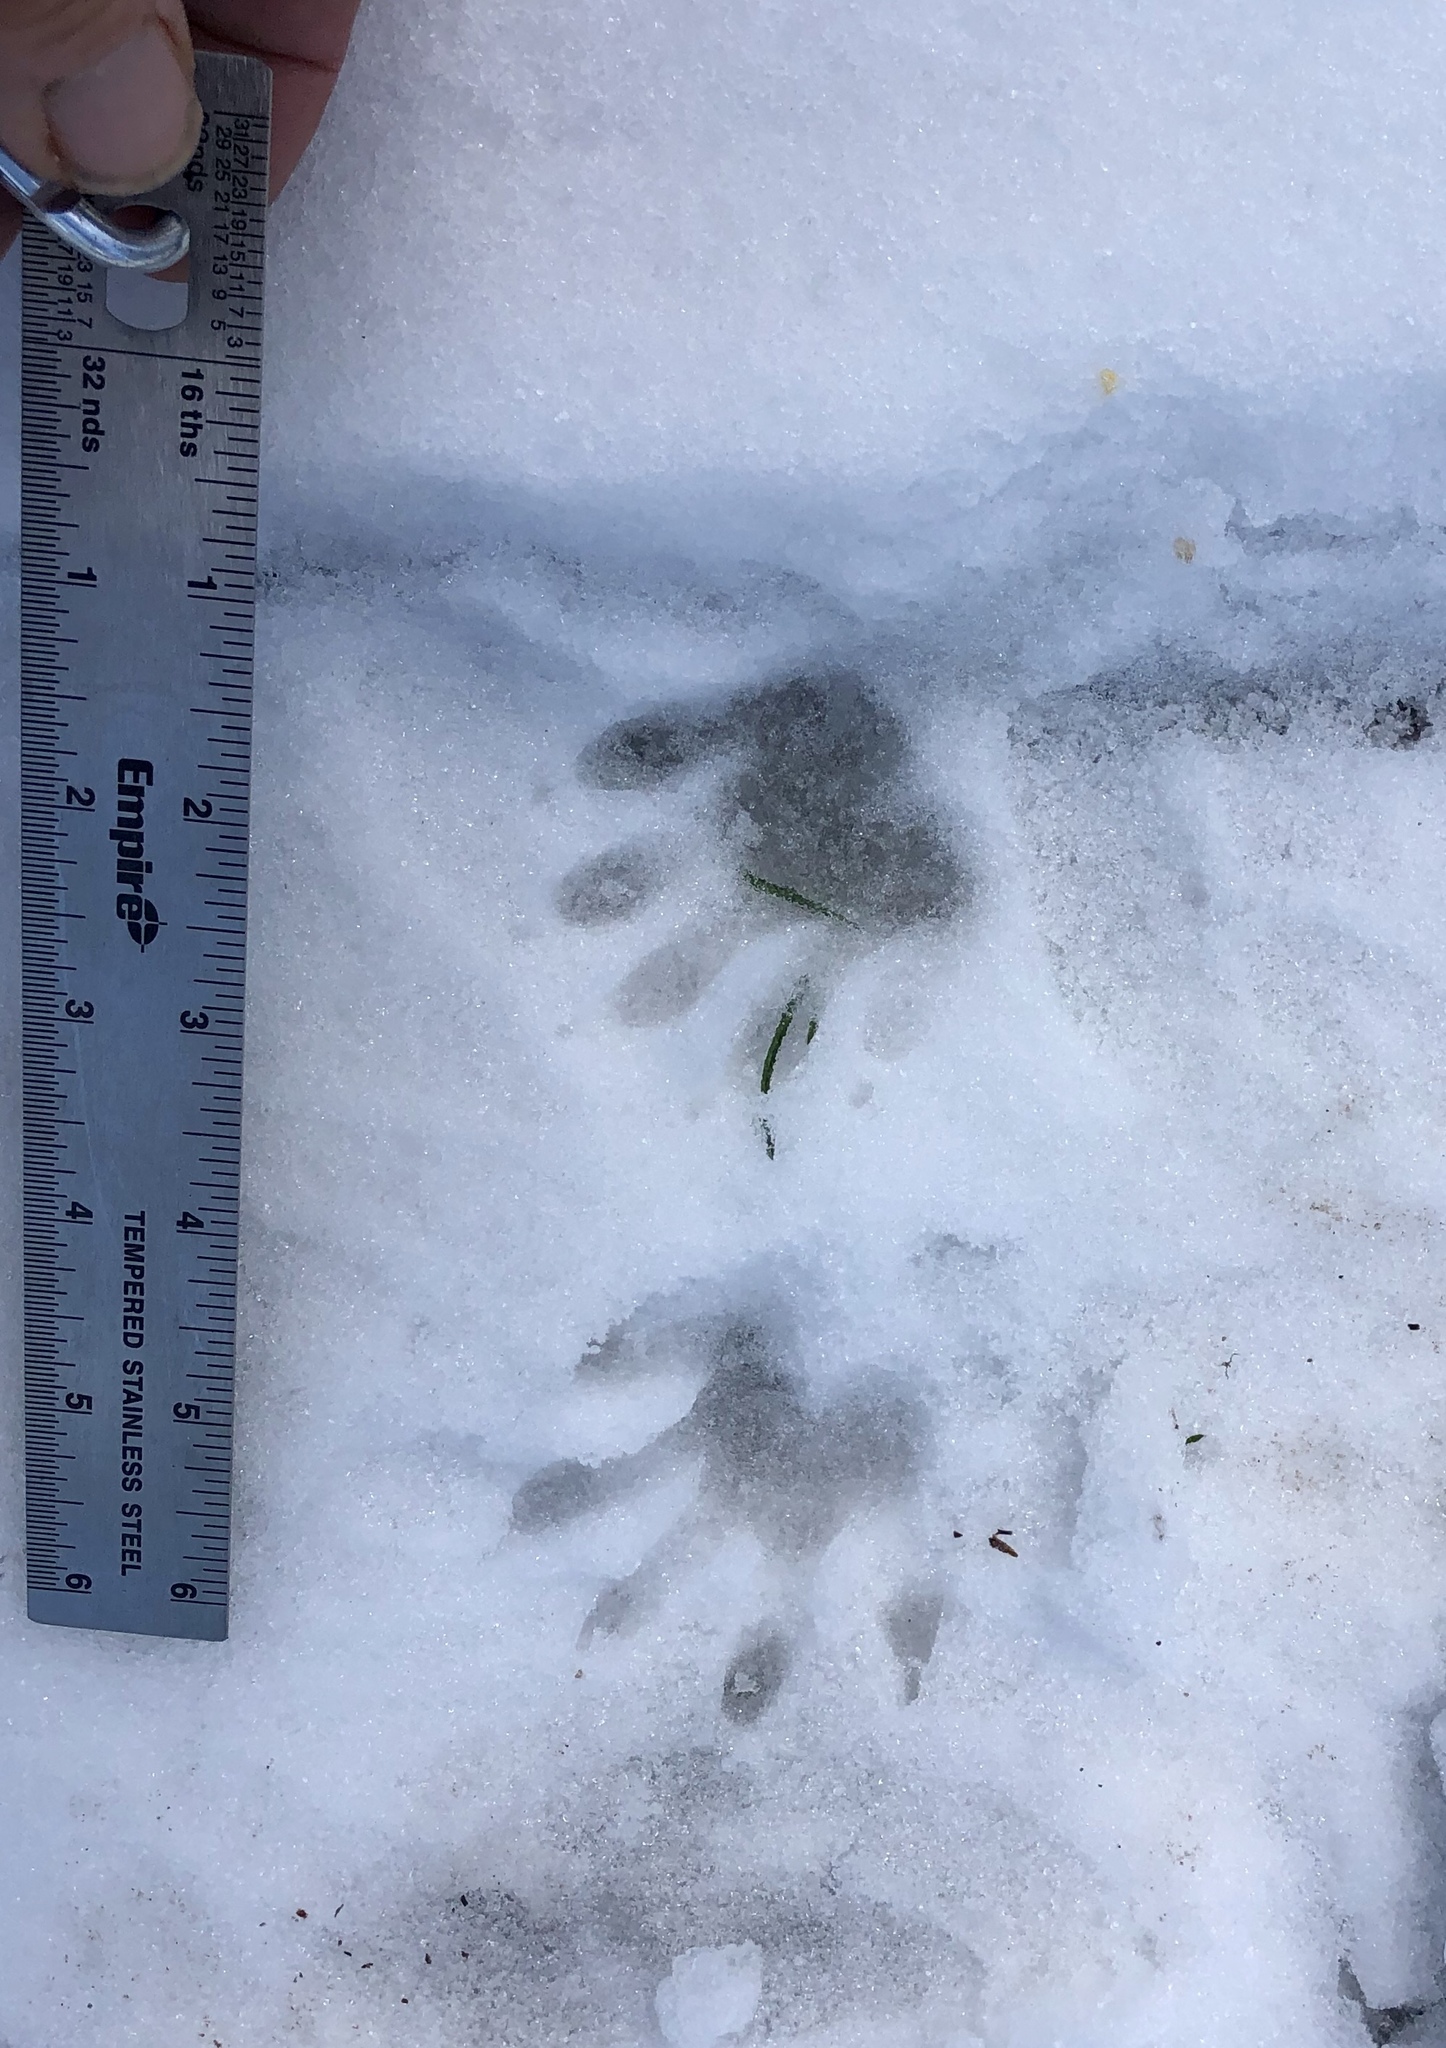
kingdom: Animalia
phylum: Chordata
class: Mammalia
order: Carnivora
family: Procyonidae
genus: Procyon
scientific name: Procyon lotor
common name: Raccoon
